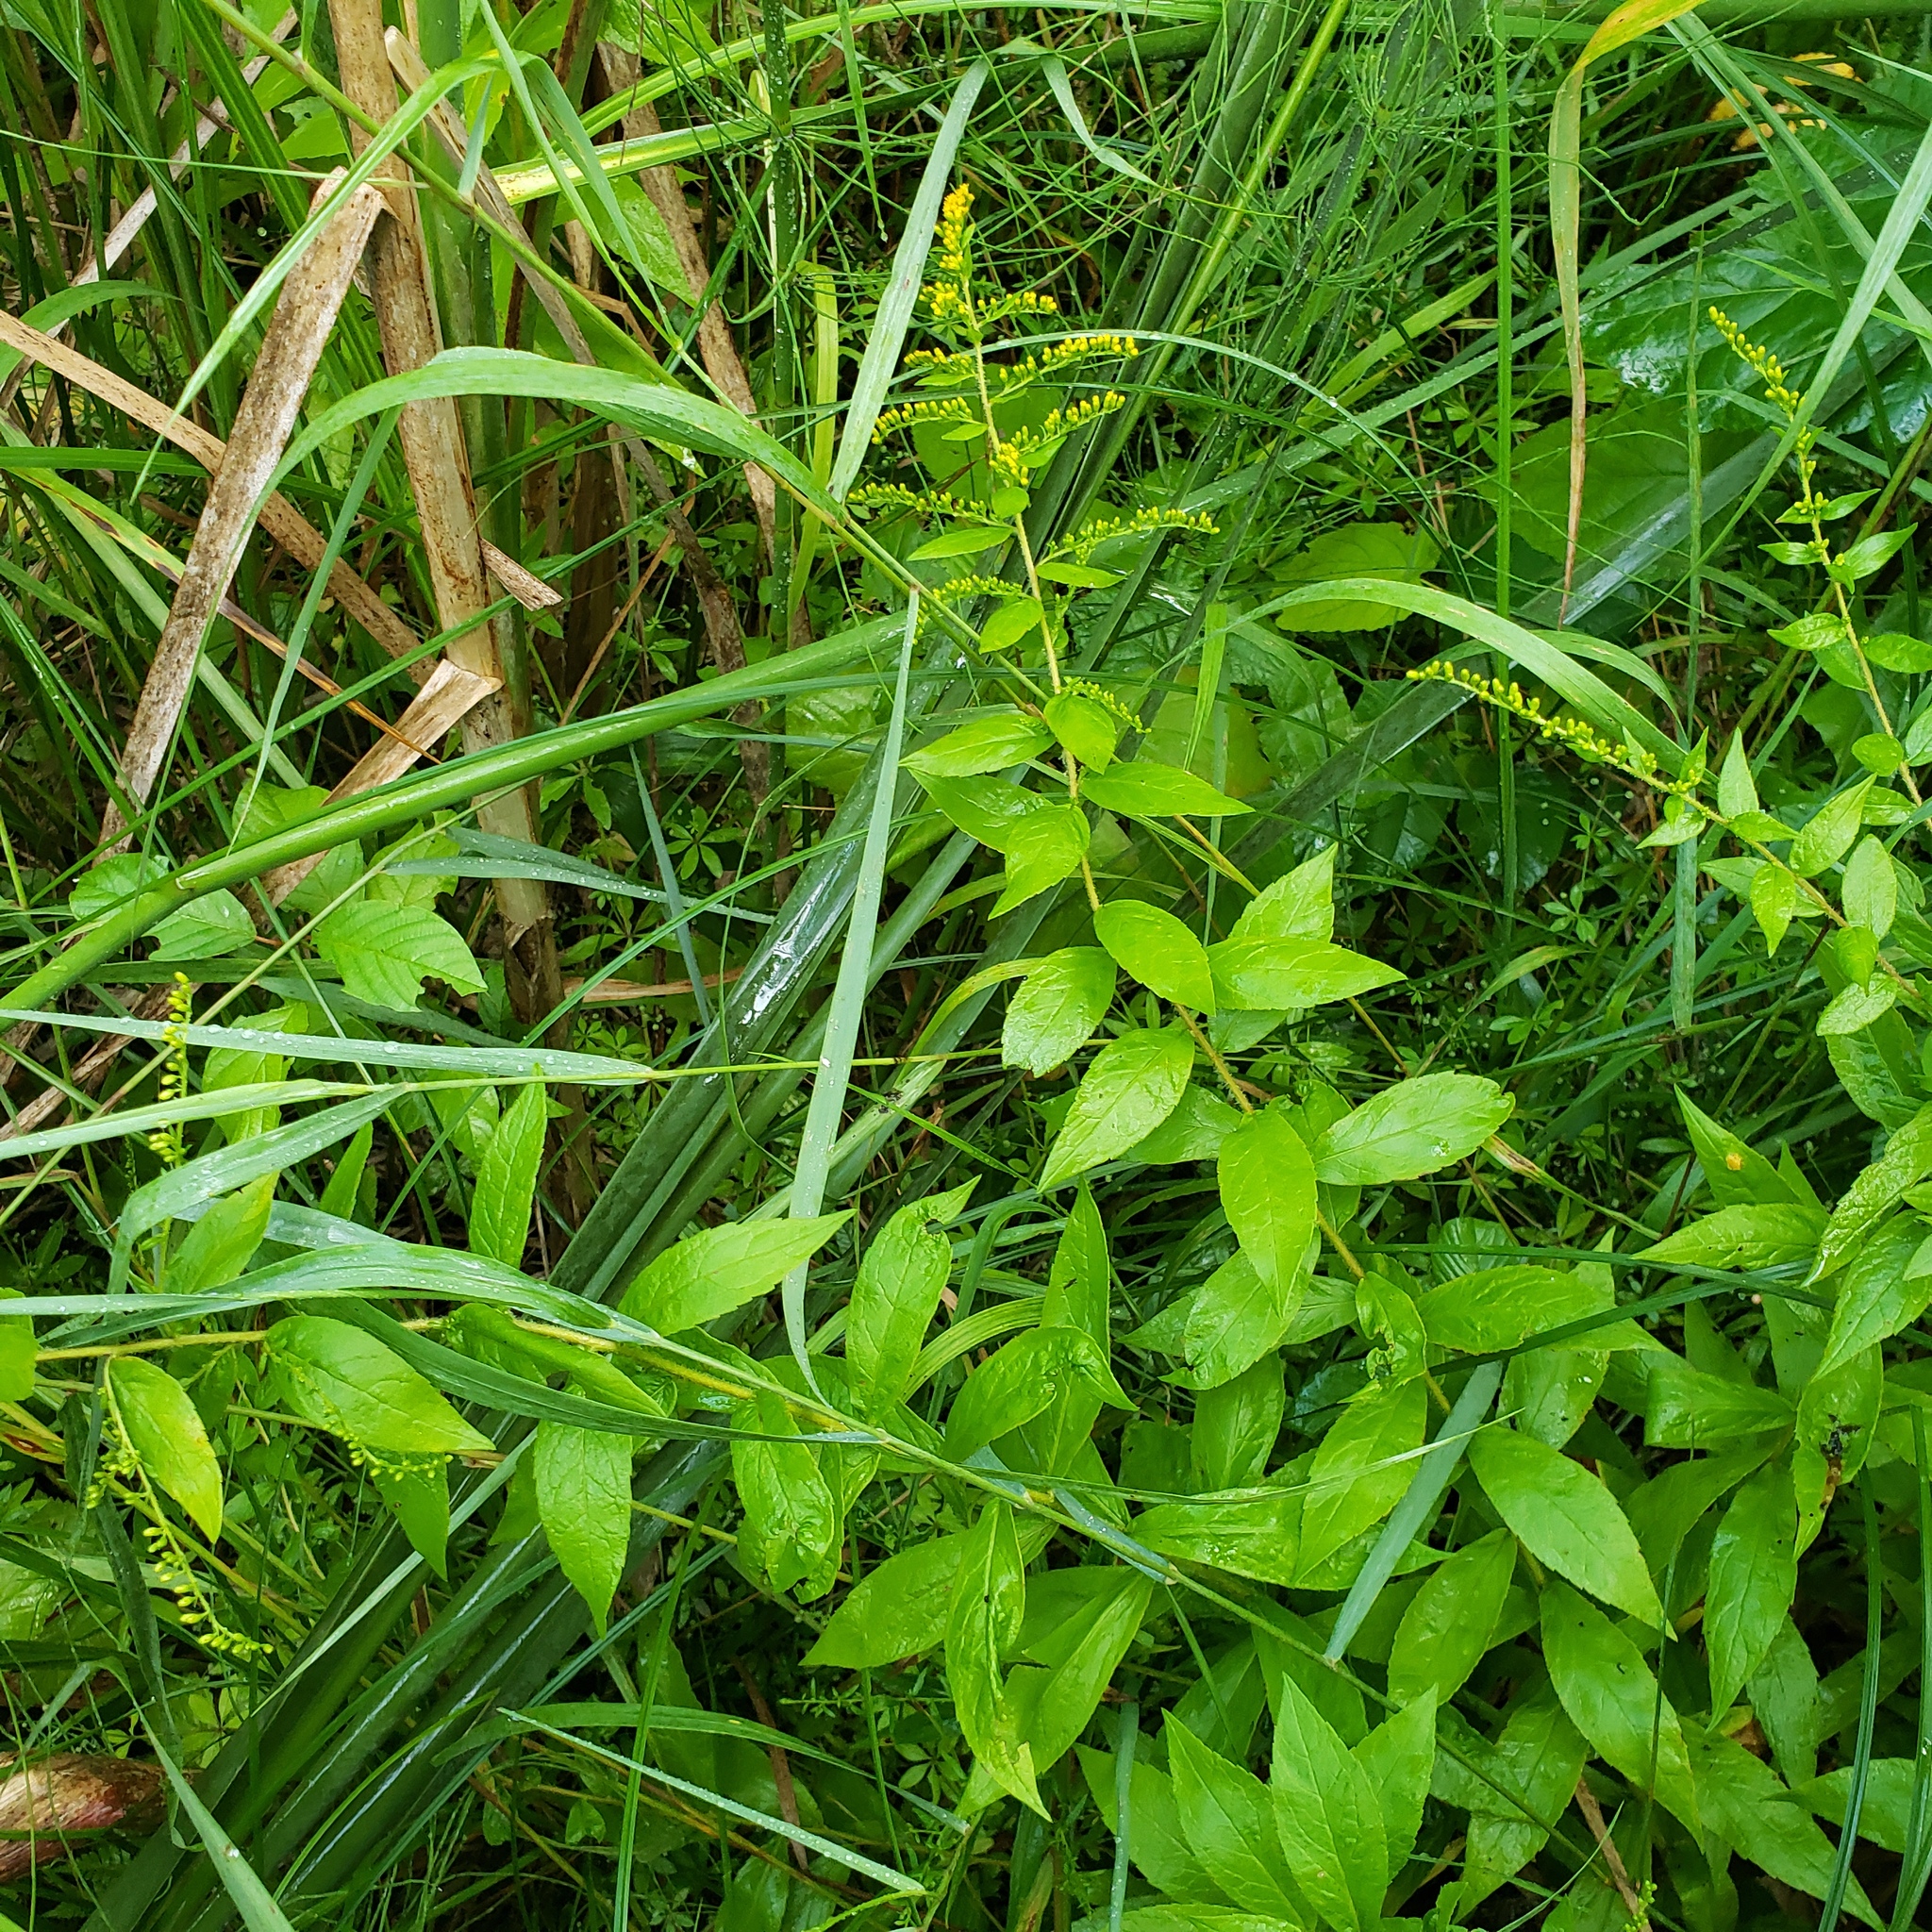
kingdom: Plantae
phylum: Tracheophyta
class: Magnoliopsida
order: Asterales
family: Asteraceae
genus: Solidago
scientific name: Solidago rugosa
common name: Rough-stemmed goldenrod
